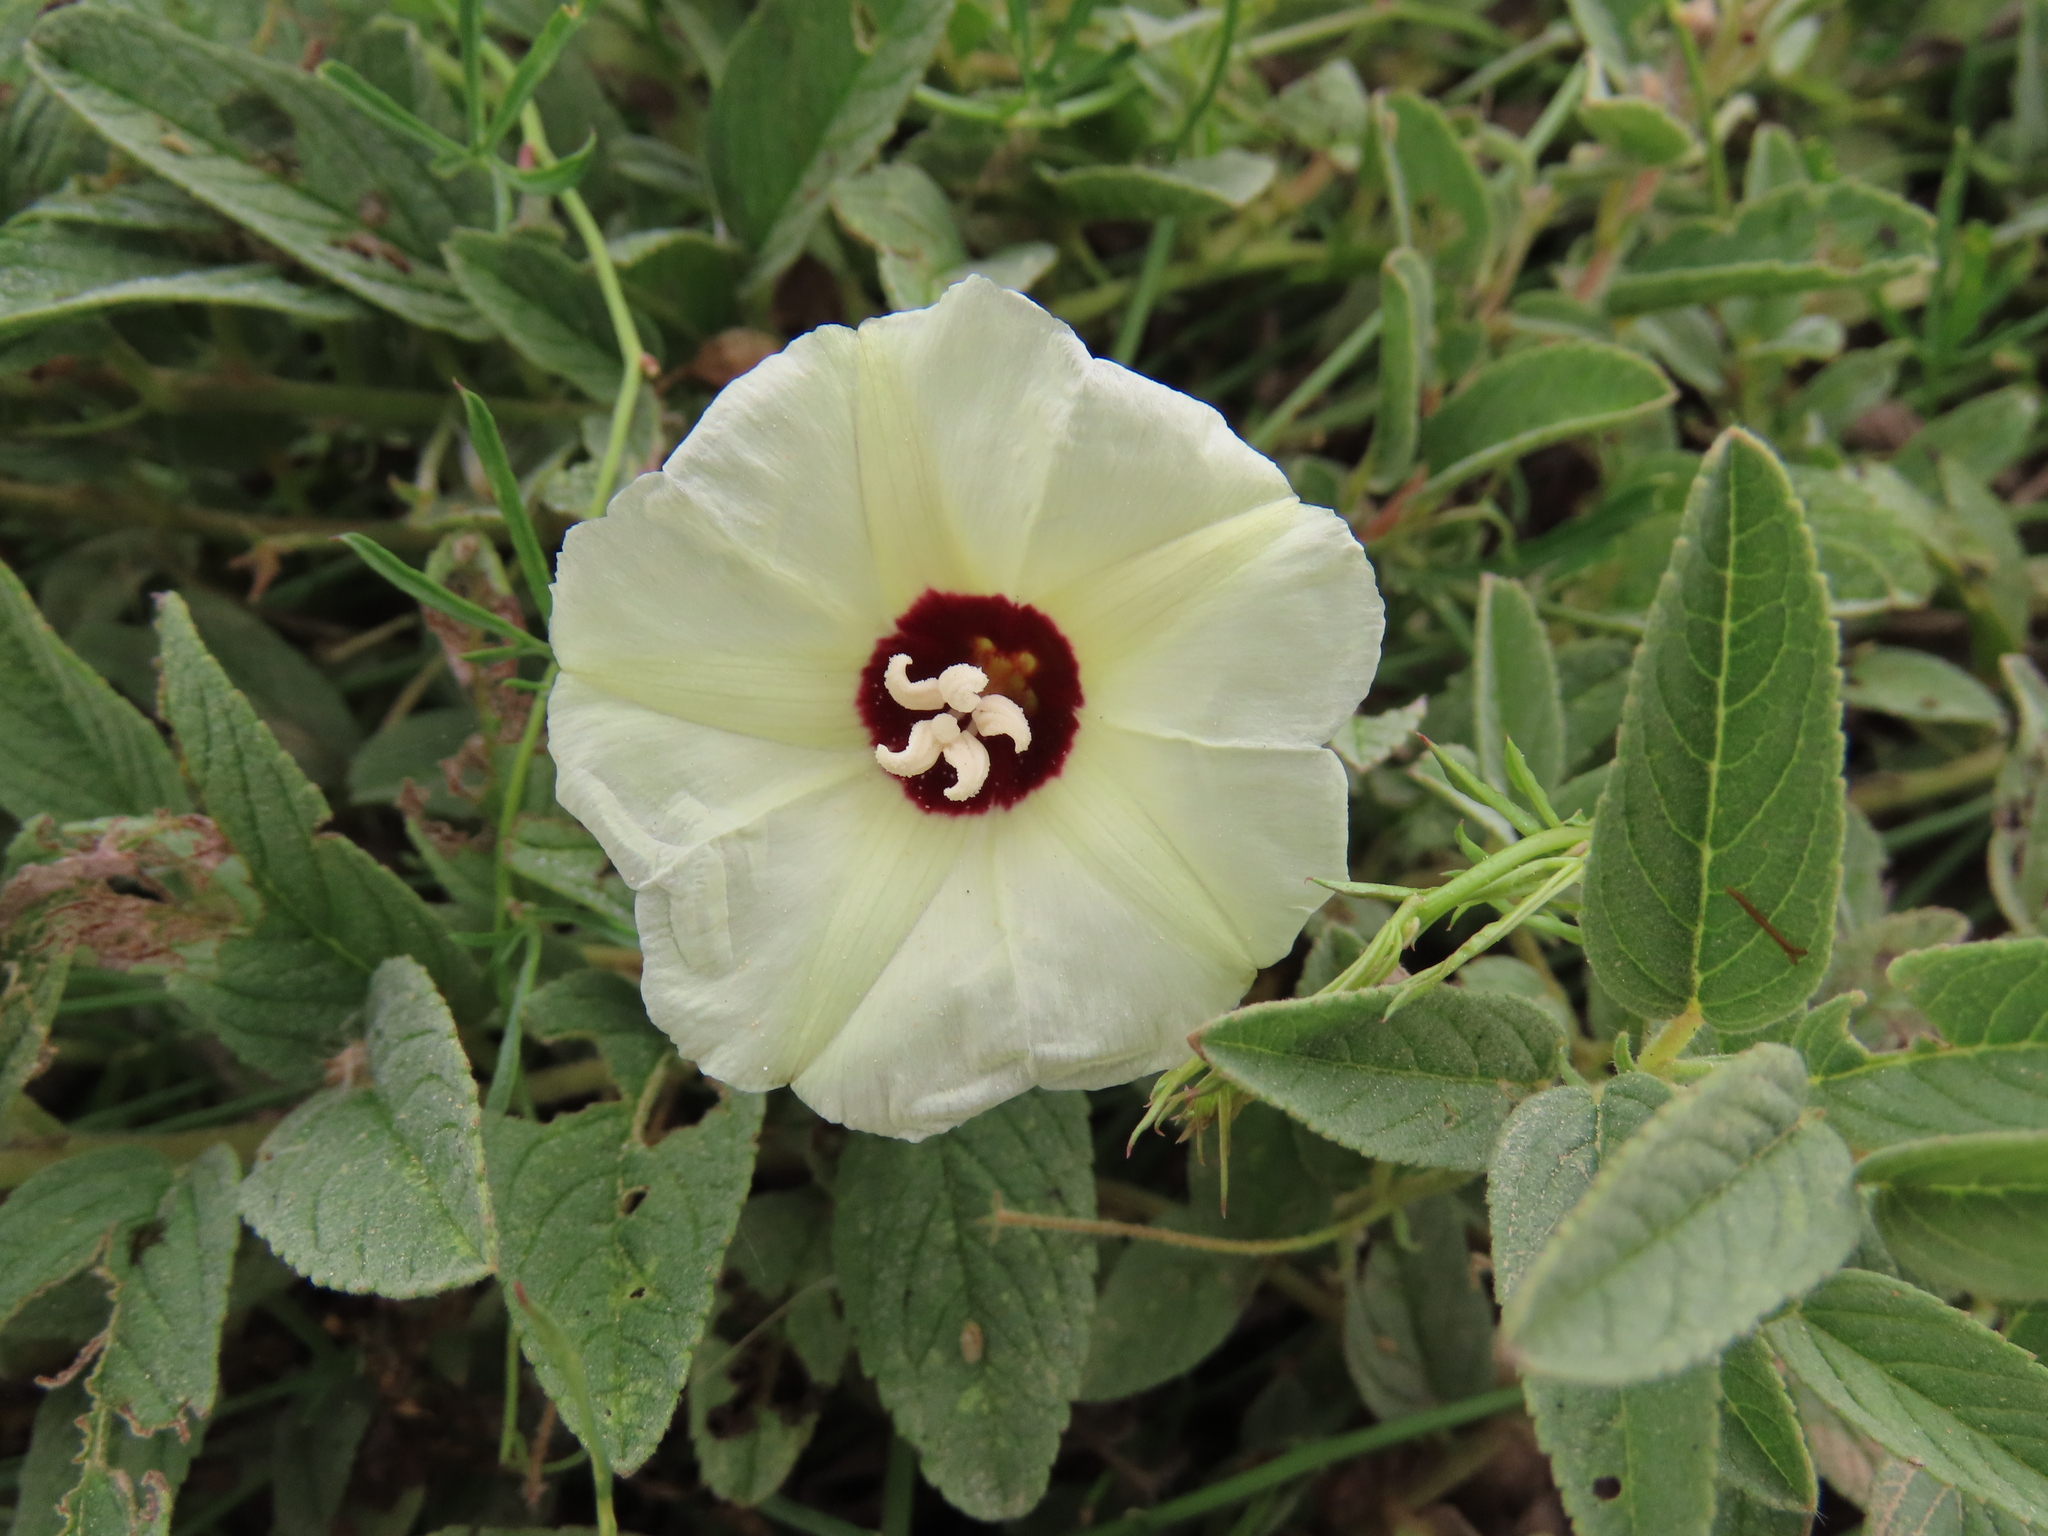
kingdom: Plantae
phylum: Tracheophyta
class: Magnoliopsida
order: Solanales
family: Convolvulaceae
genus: Merremia
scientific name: Merremia palmata
